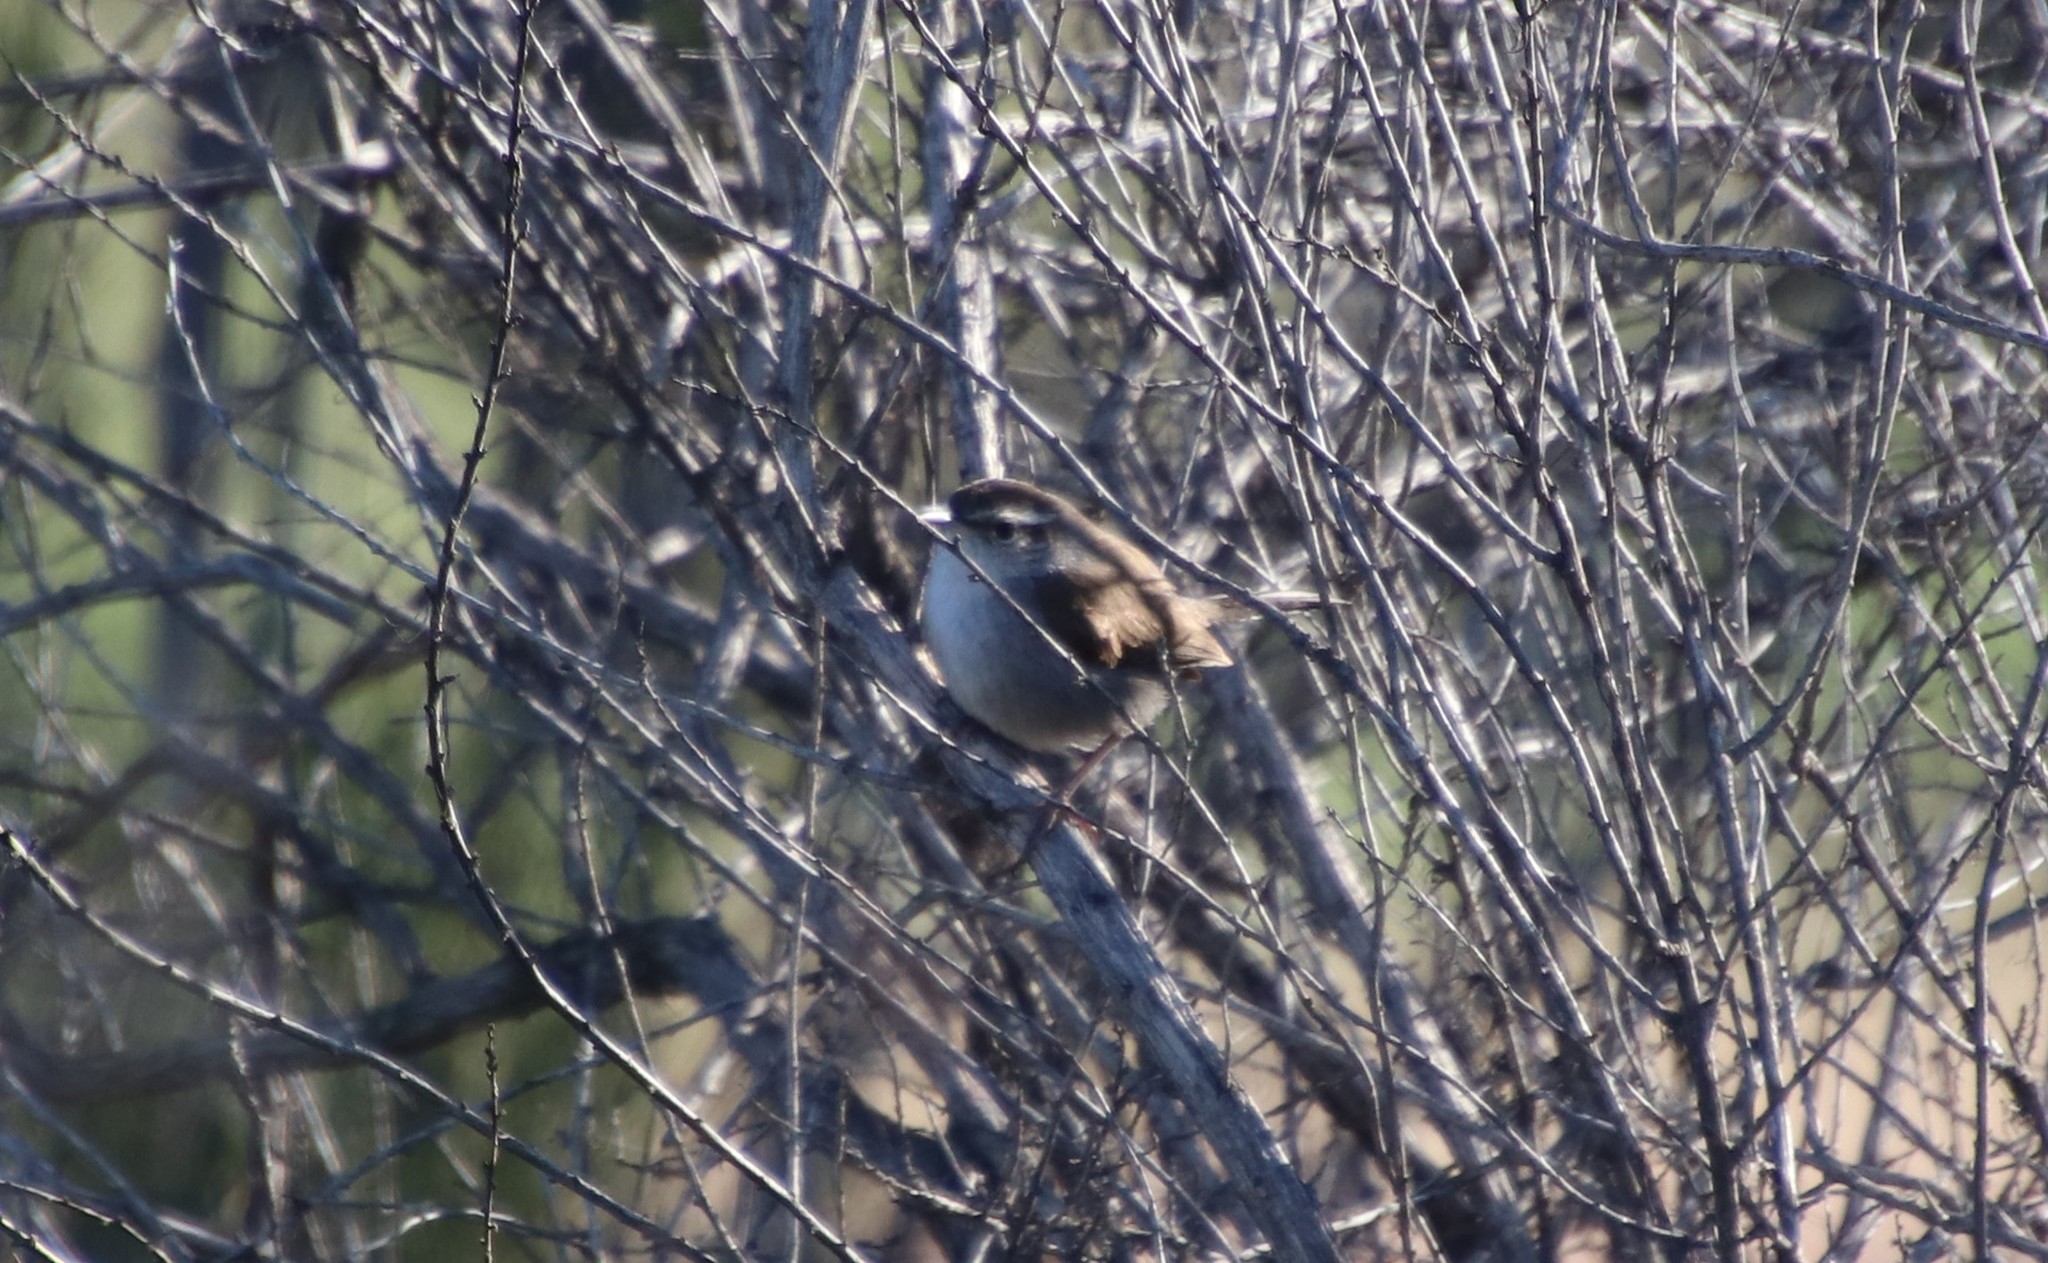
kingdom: Animalia
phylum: Chordata
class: Aves
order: Passeriformes
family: Troglodytidae
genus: Thryomanes
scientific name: Thryomanes bewickii
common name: Bewick's wren
